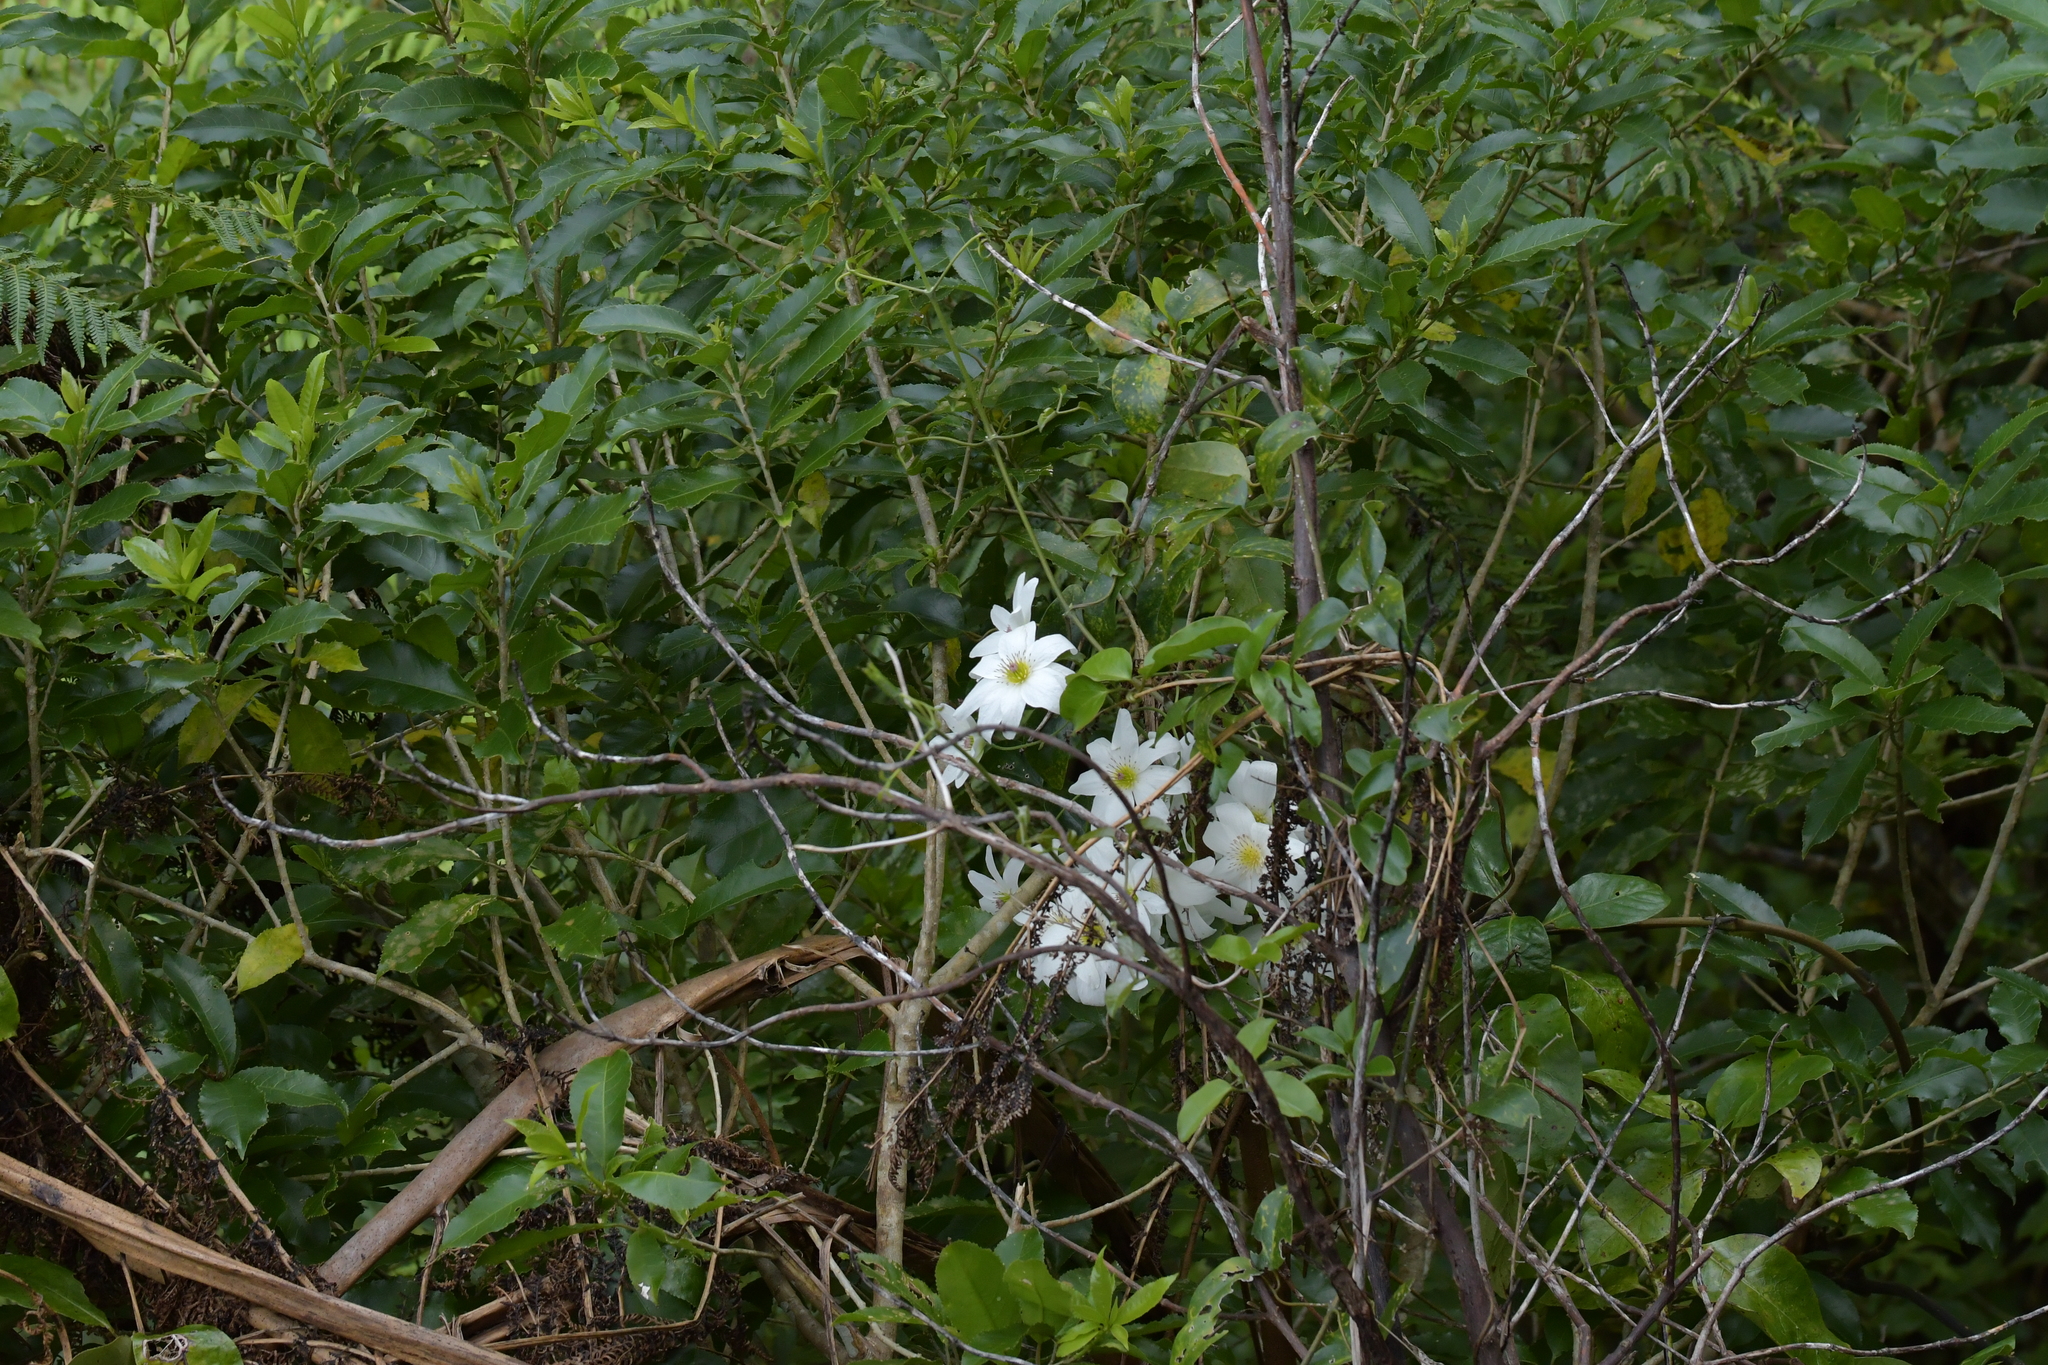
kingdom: Plantae
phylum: Tracheophyta
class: Magnoliopsida
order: Ranunculales
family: Ranunculaceae
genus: Clematis
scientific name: Clematis paniculata
